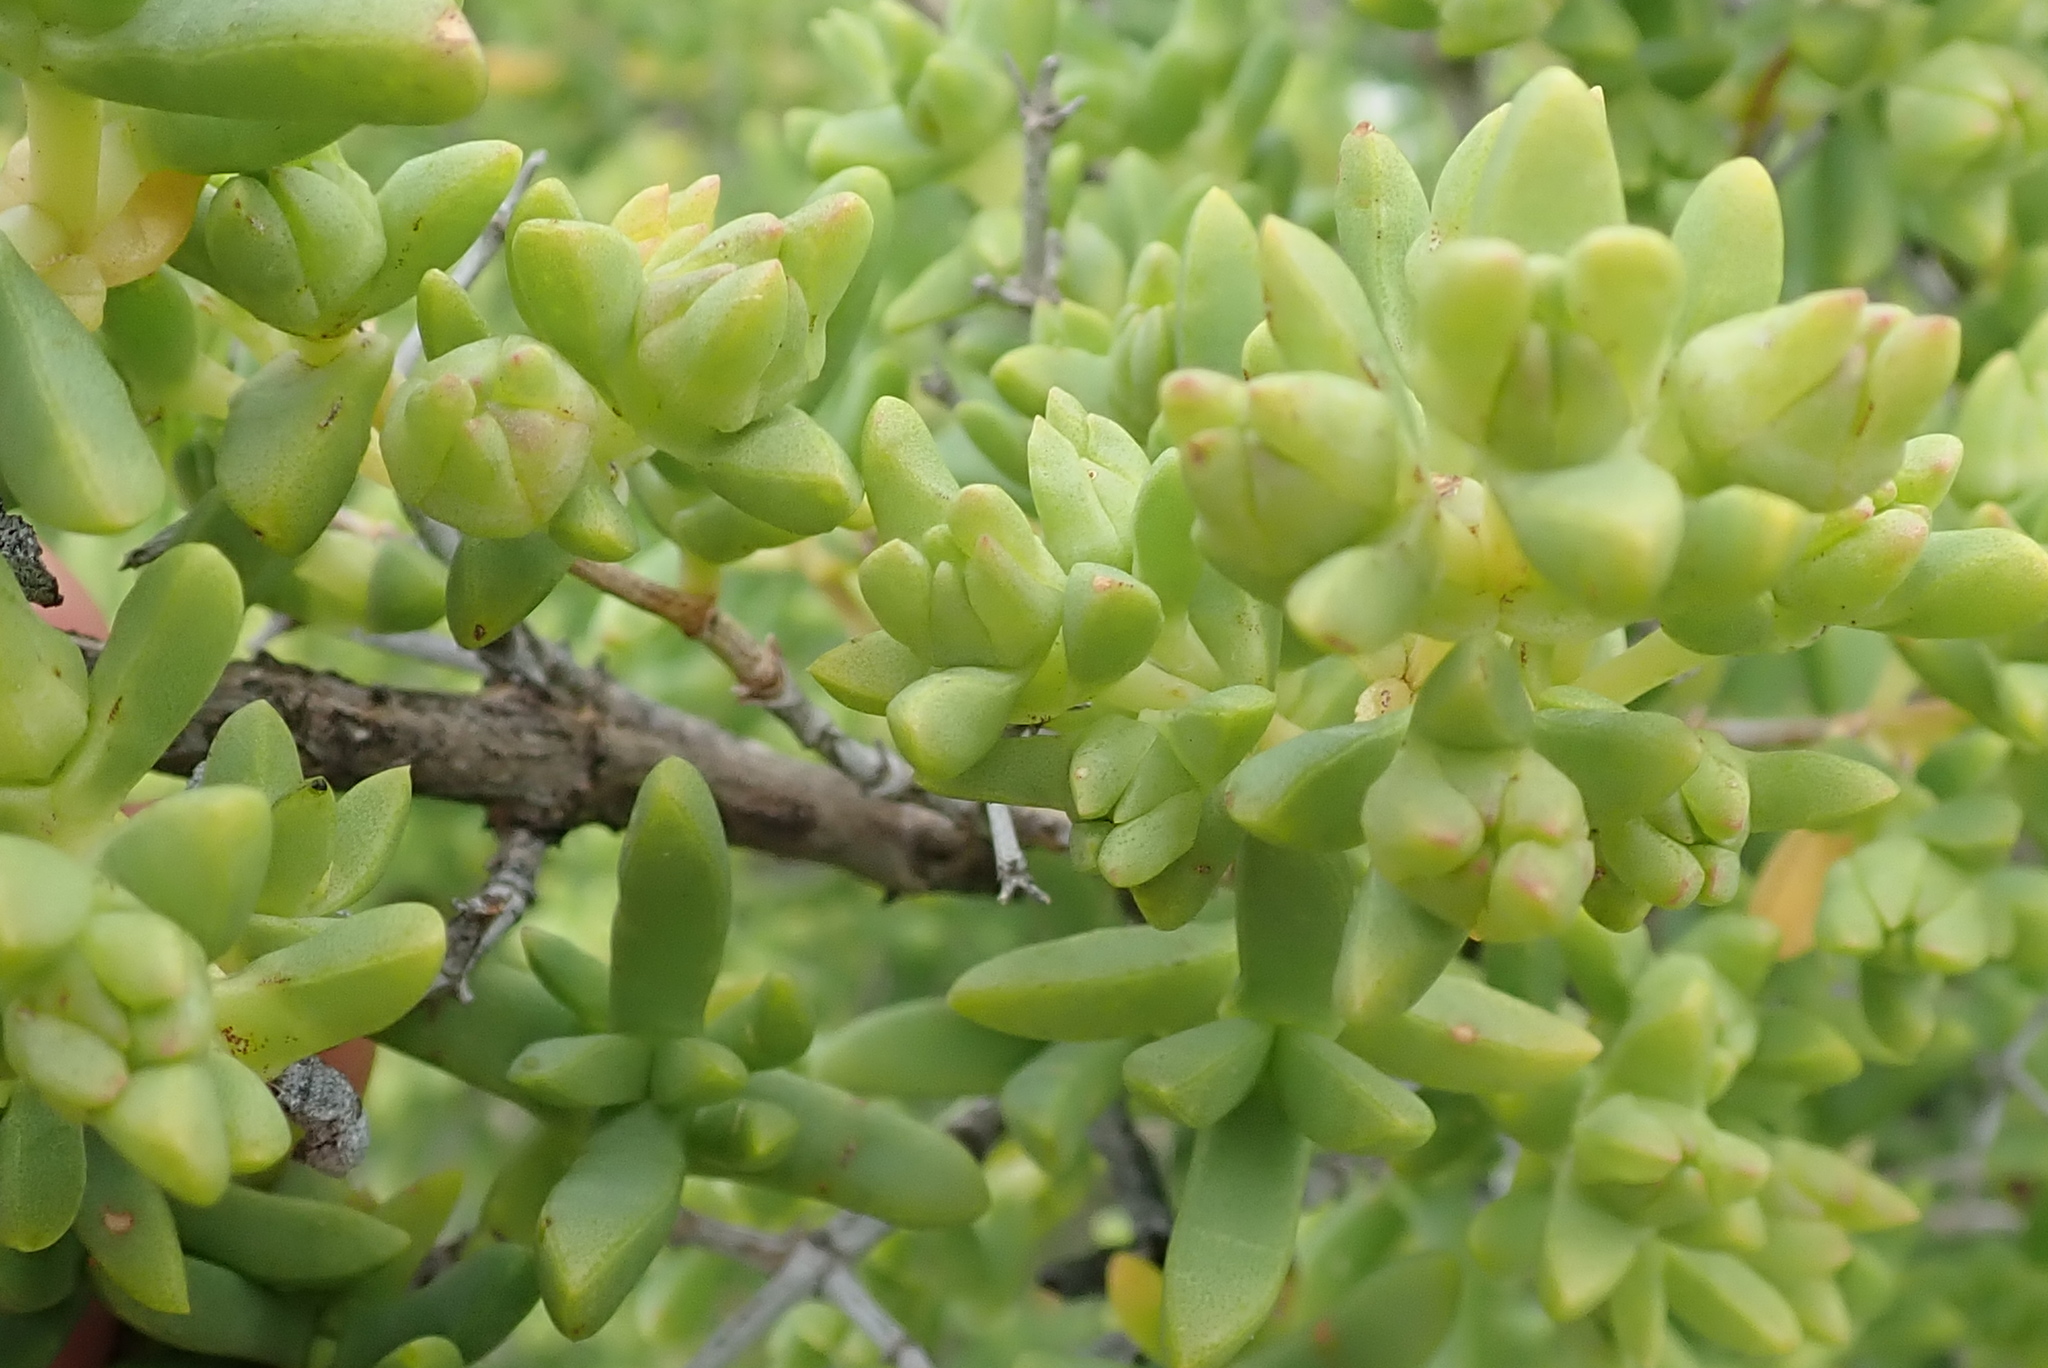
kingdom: Plantae
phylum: Tracheophyta
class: Magnoliopsida
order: Caryophyllales
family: Aizoaceae
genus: Stoeberia
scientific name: Stoeberia utilis
